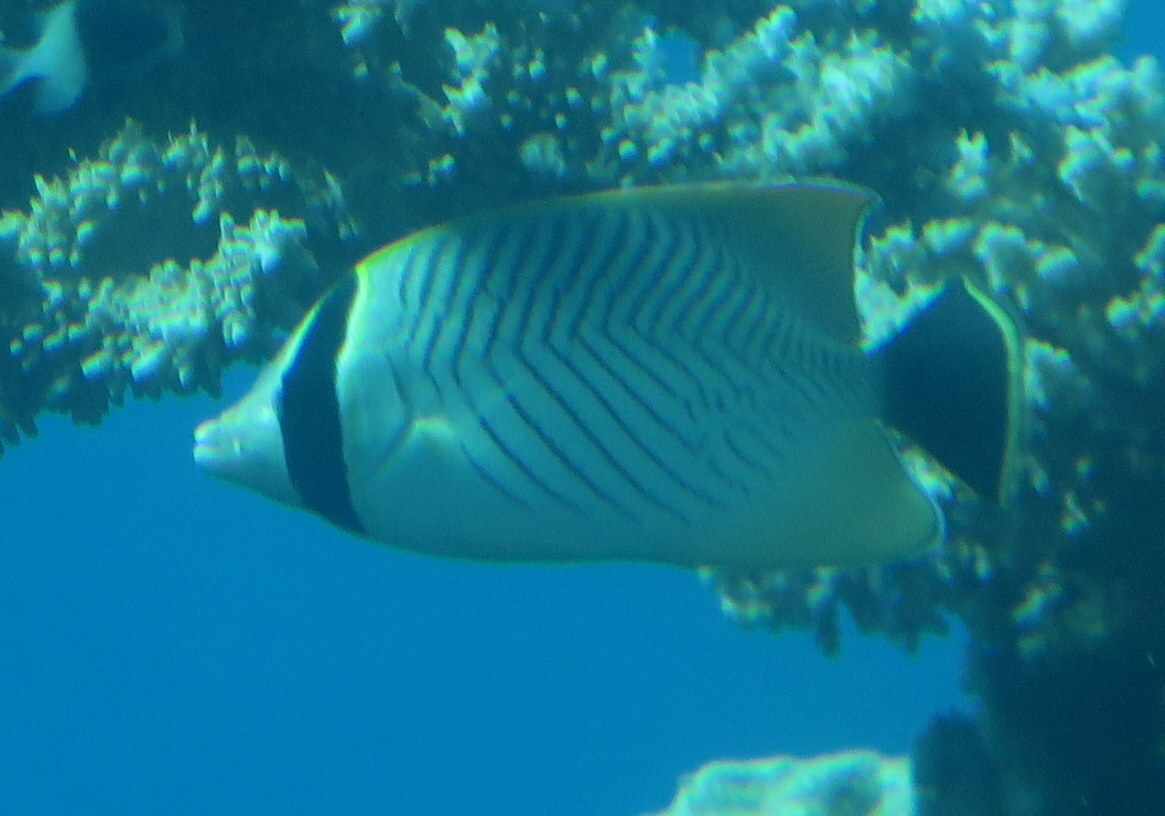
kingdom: Animalia
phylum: Chordata
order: Perciformes
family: Chaetodontidae
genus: Chaetodon
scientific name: Chaetodon trifascialis
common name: Chevroned butterflyfish
